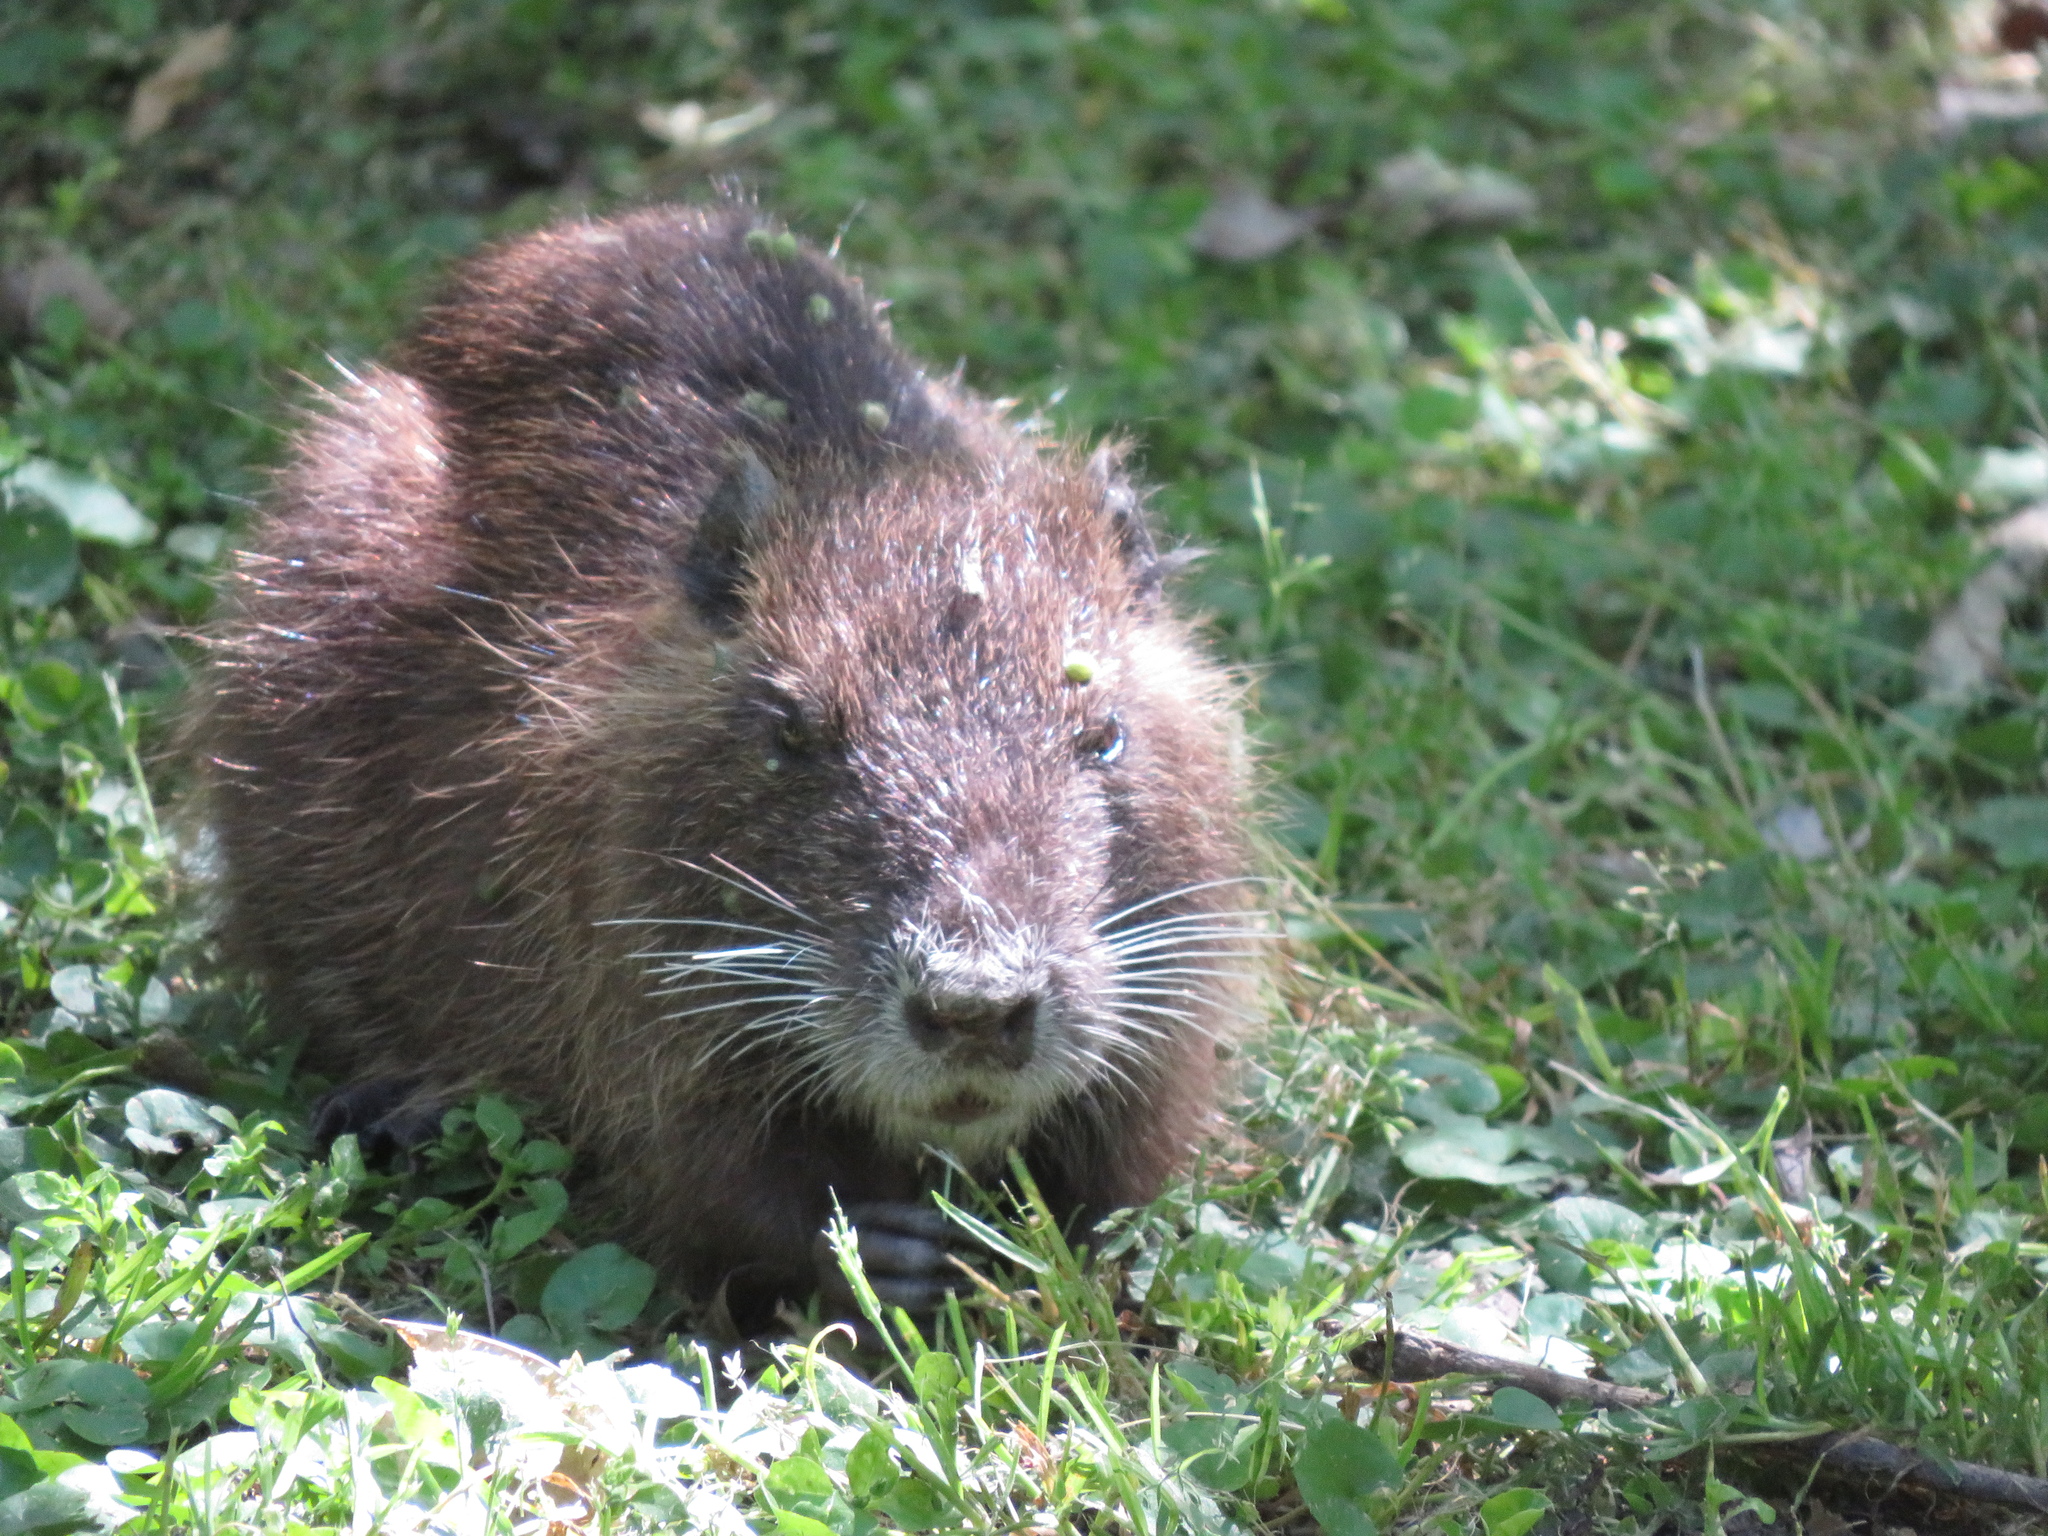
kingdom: Animalia
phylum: Chordata
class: Mammalia
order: Rodentia
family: Myocastoridae
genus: Myocastor
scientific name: Myocastor coypus
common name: Coypu
